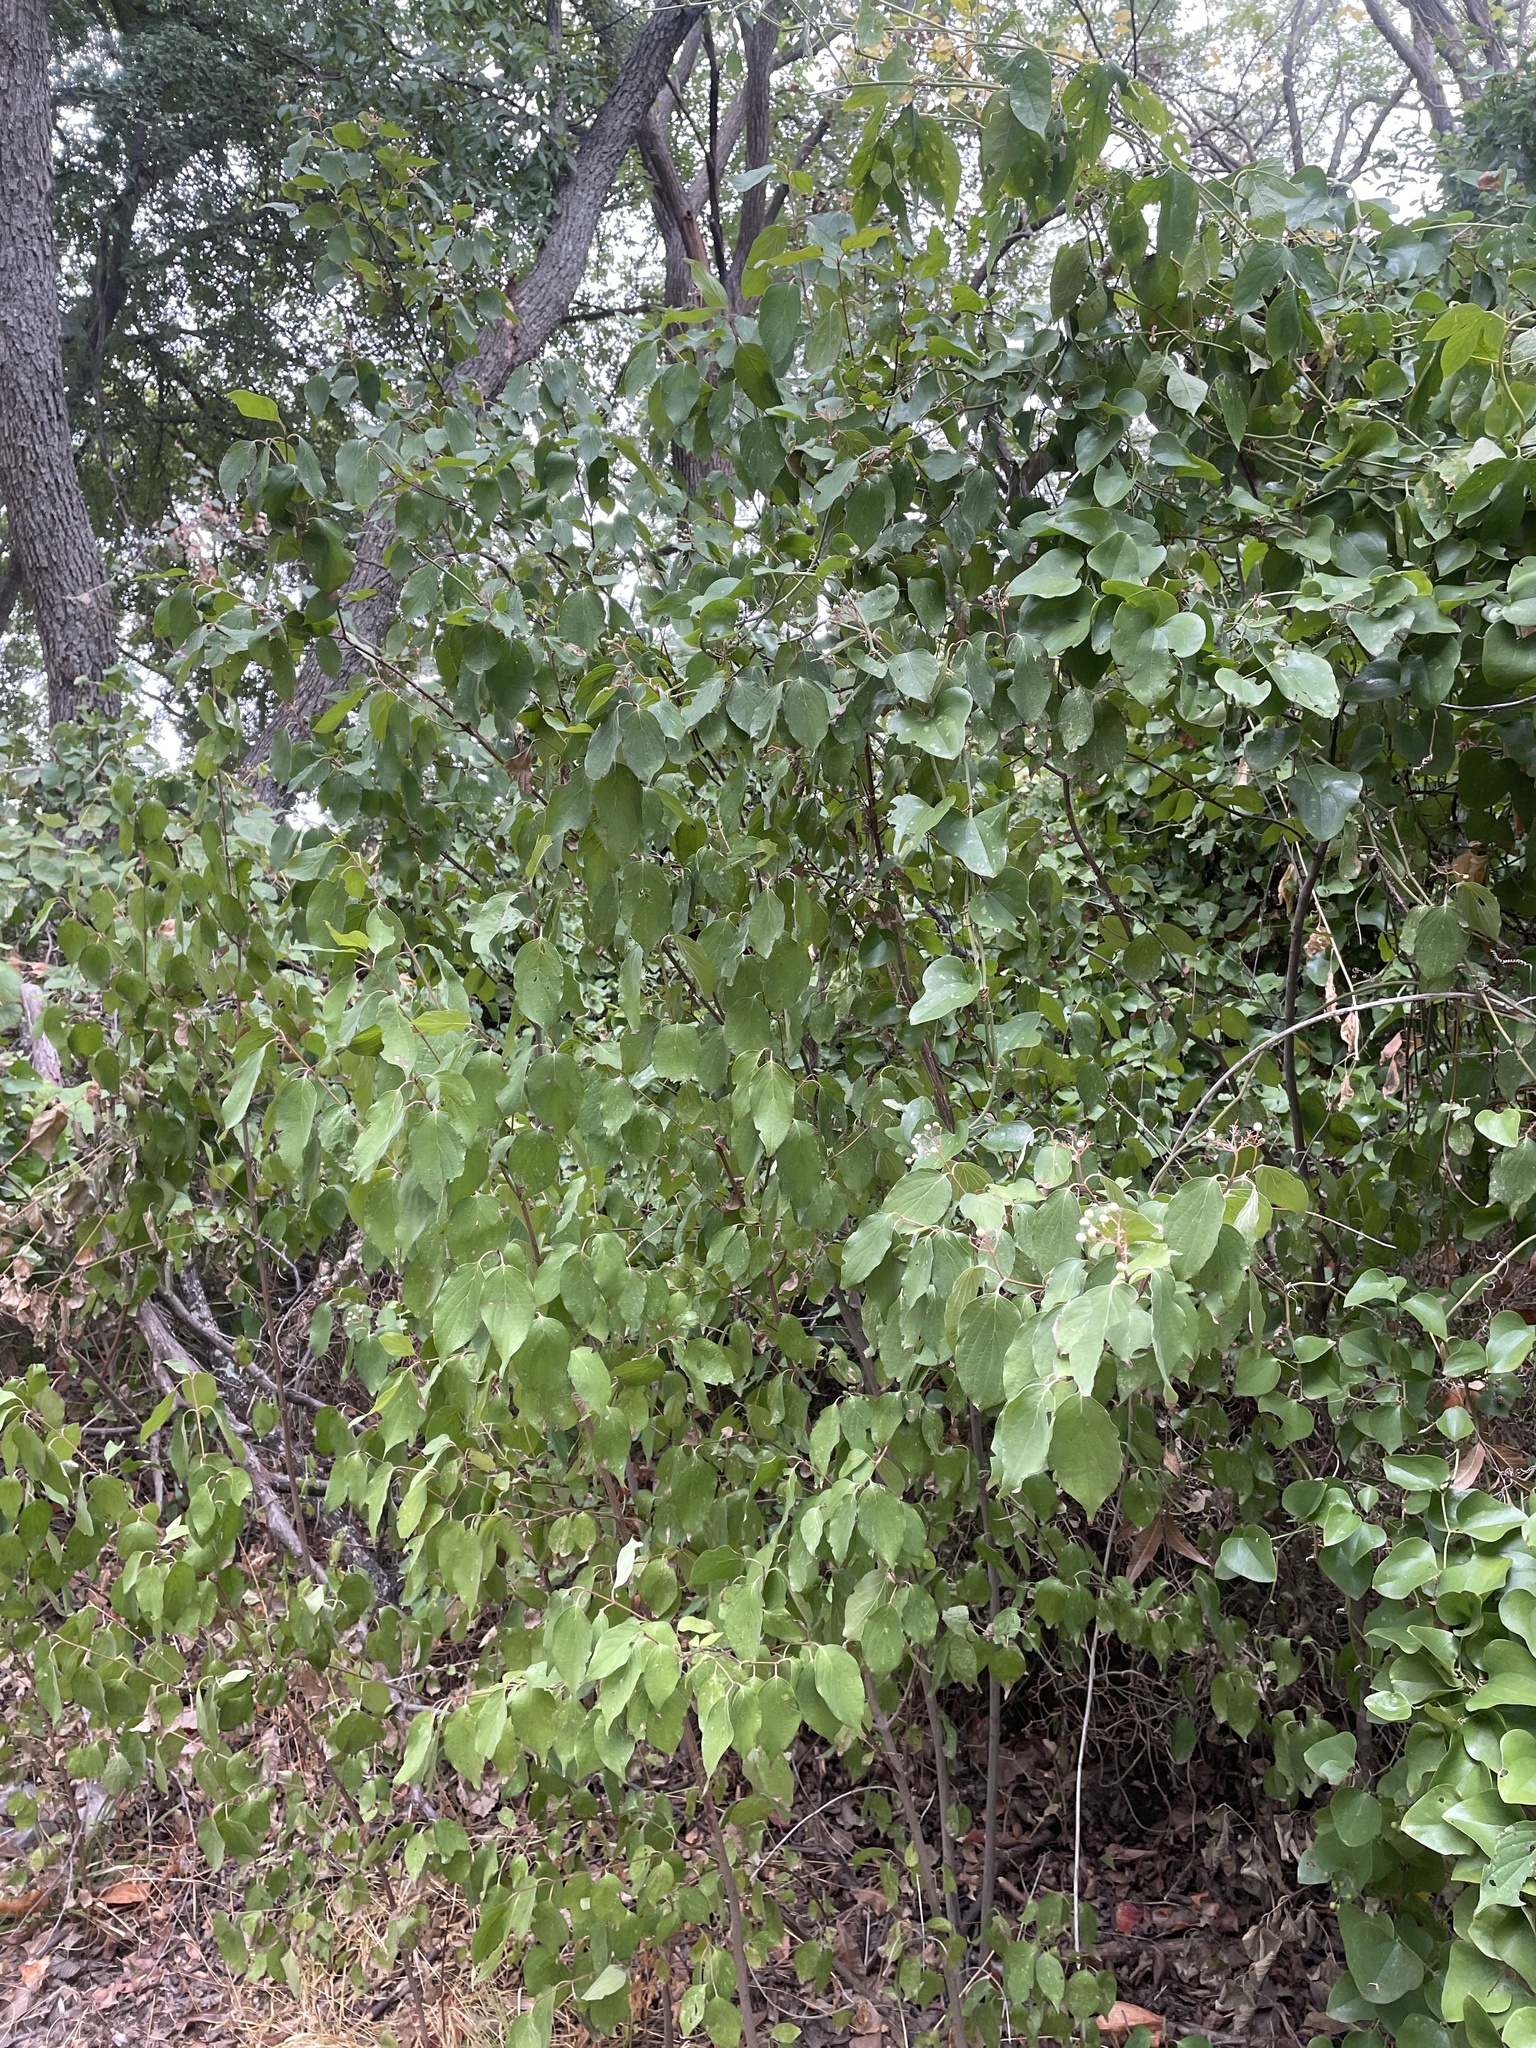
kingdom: Plantae
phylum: Tracheophyta
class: Magnoliopsida
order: Cornales
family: Cornaceae
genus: Cornus
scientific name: Cornus drummondii
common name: Rough-leaf dogwood
